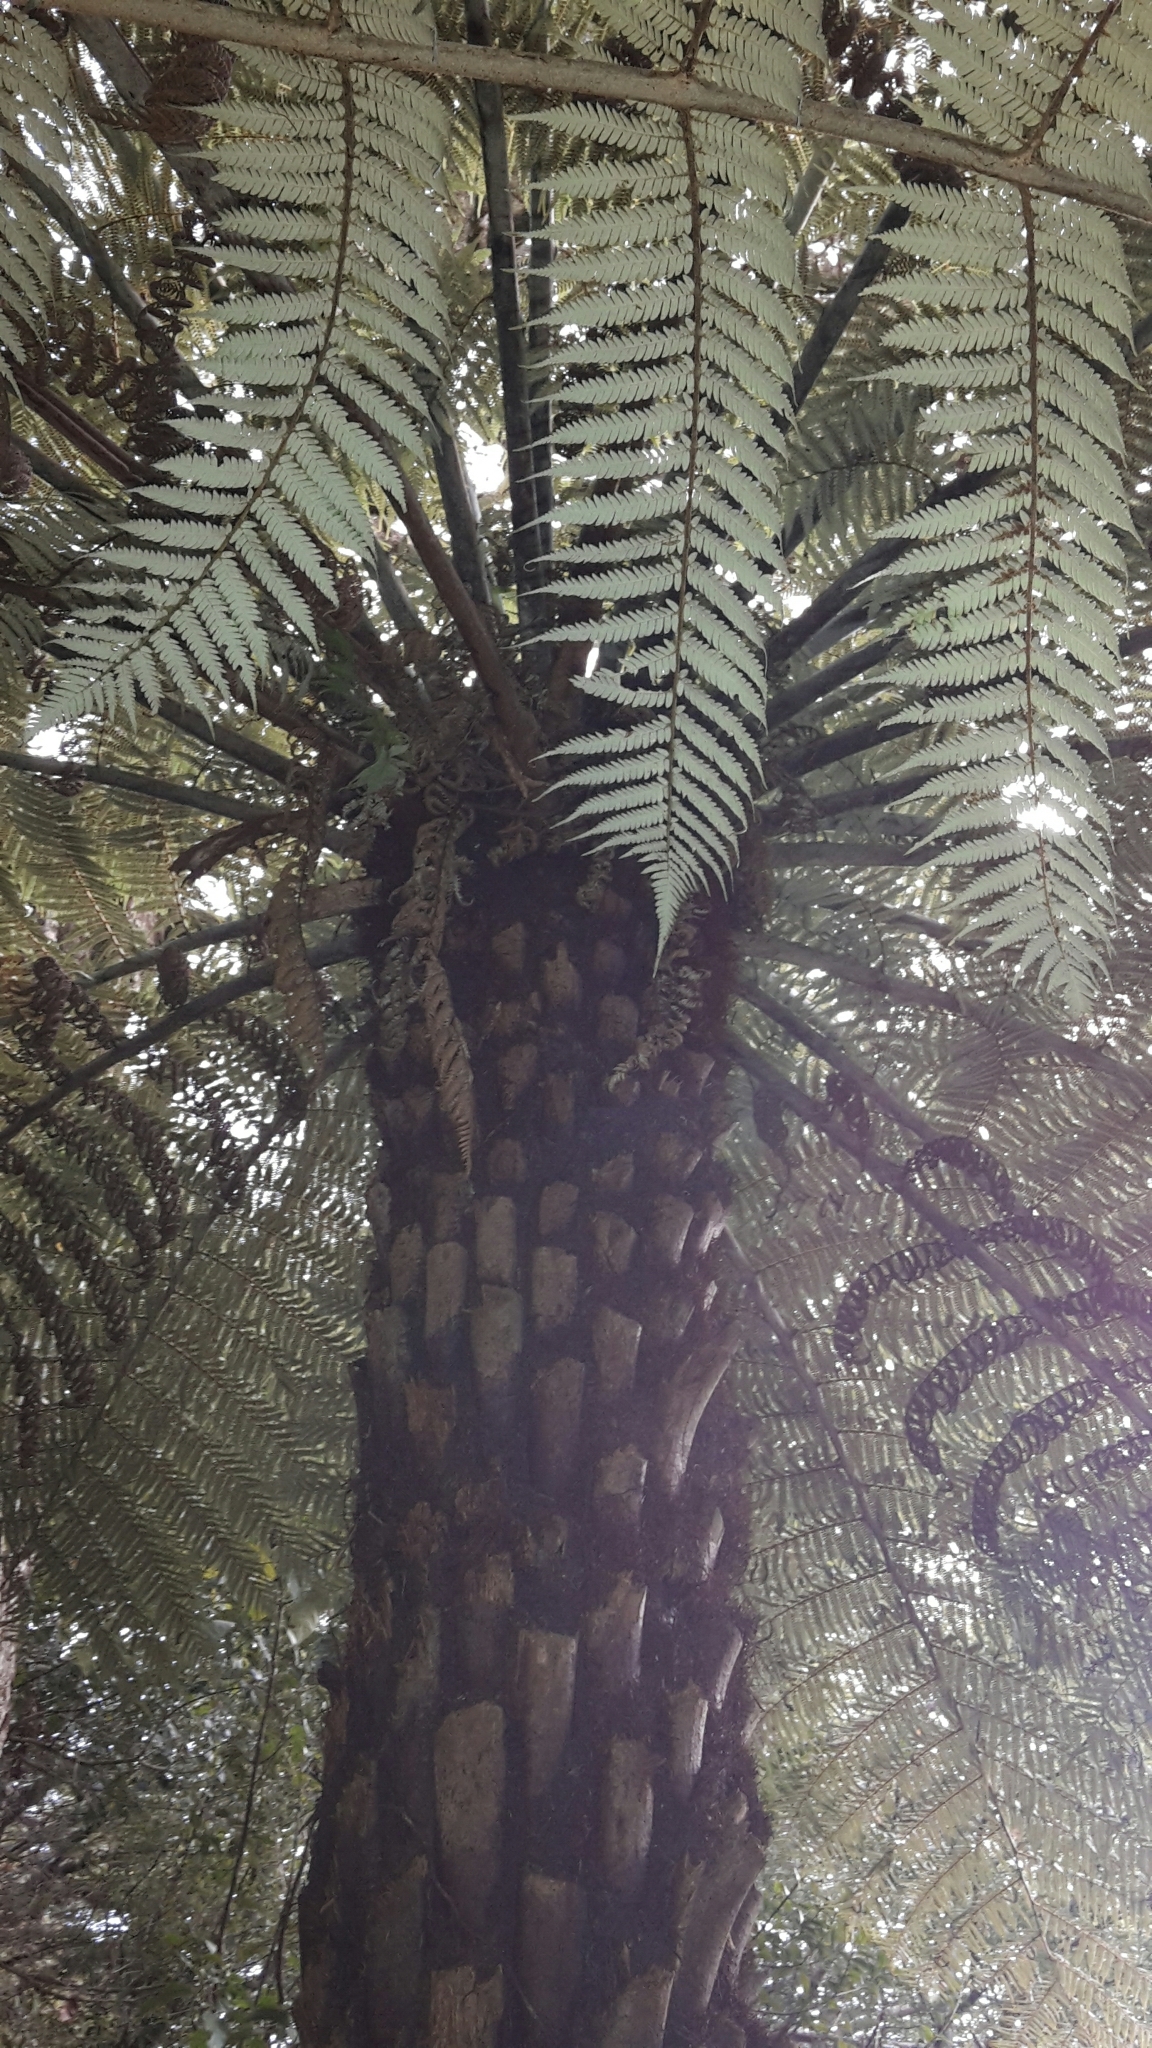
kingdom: Plantae
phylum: Tracheophyta
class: Polypodiopsida
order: Cyatheales
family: Cyatheaceae
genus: Alsophila
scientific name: Alsophila dealbata
